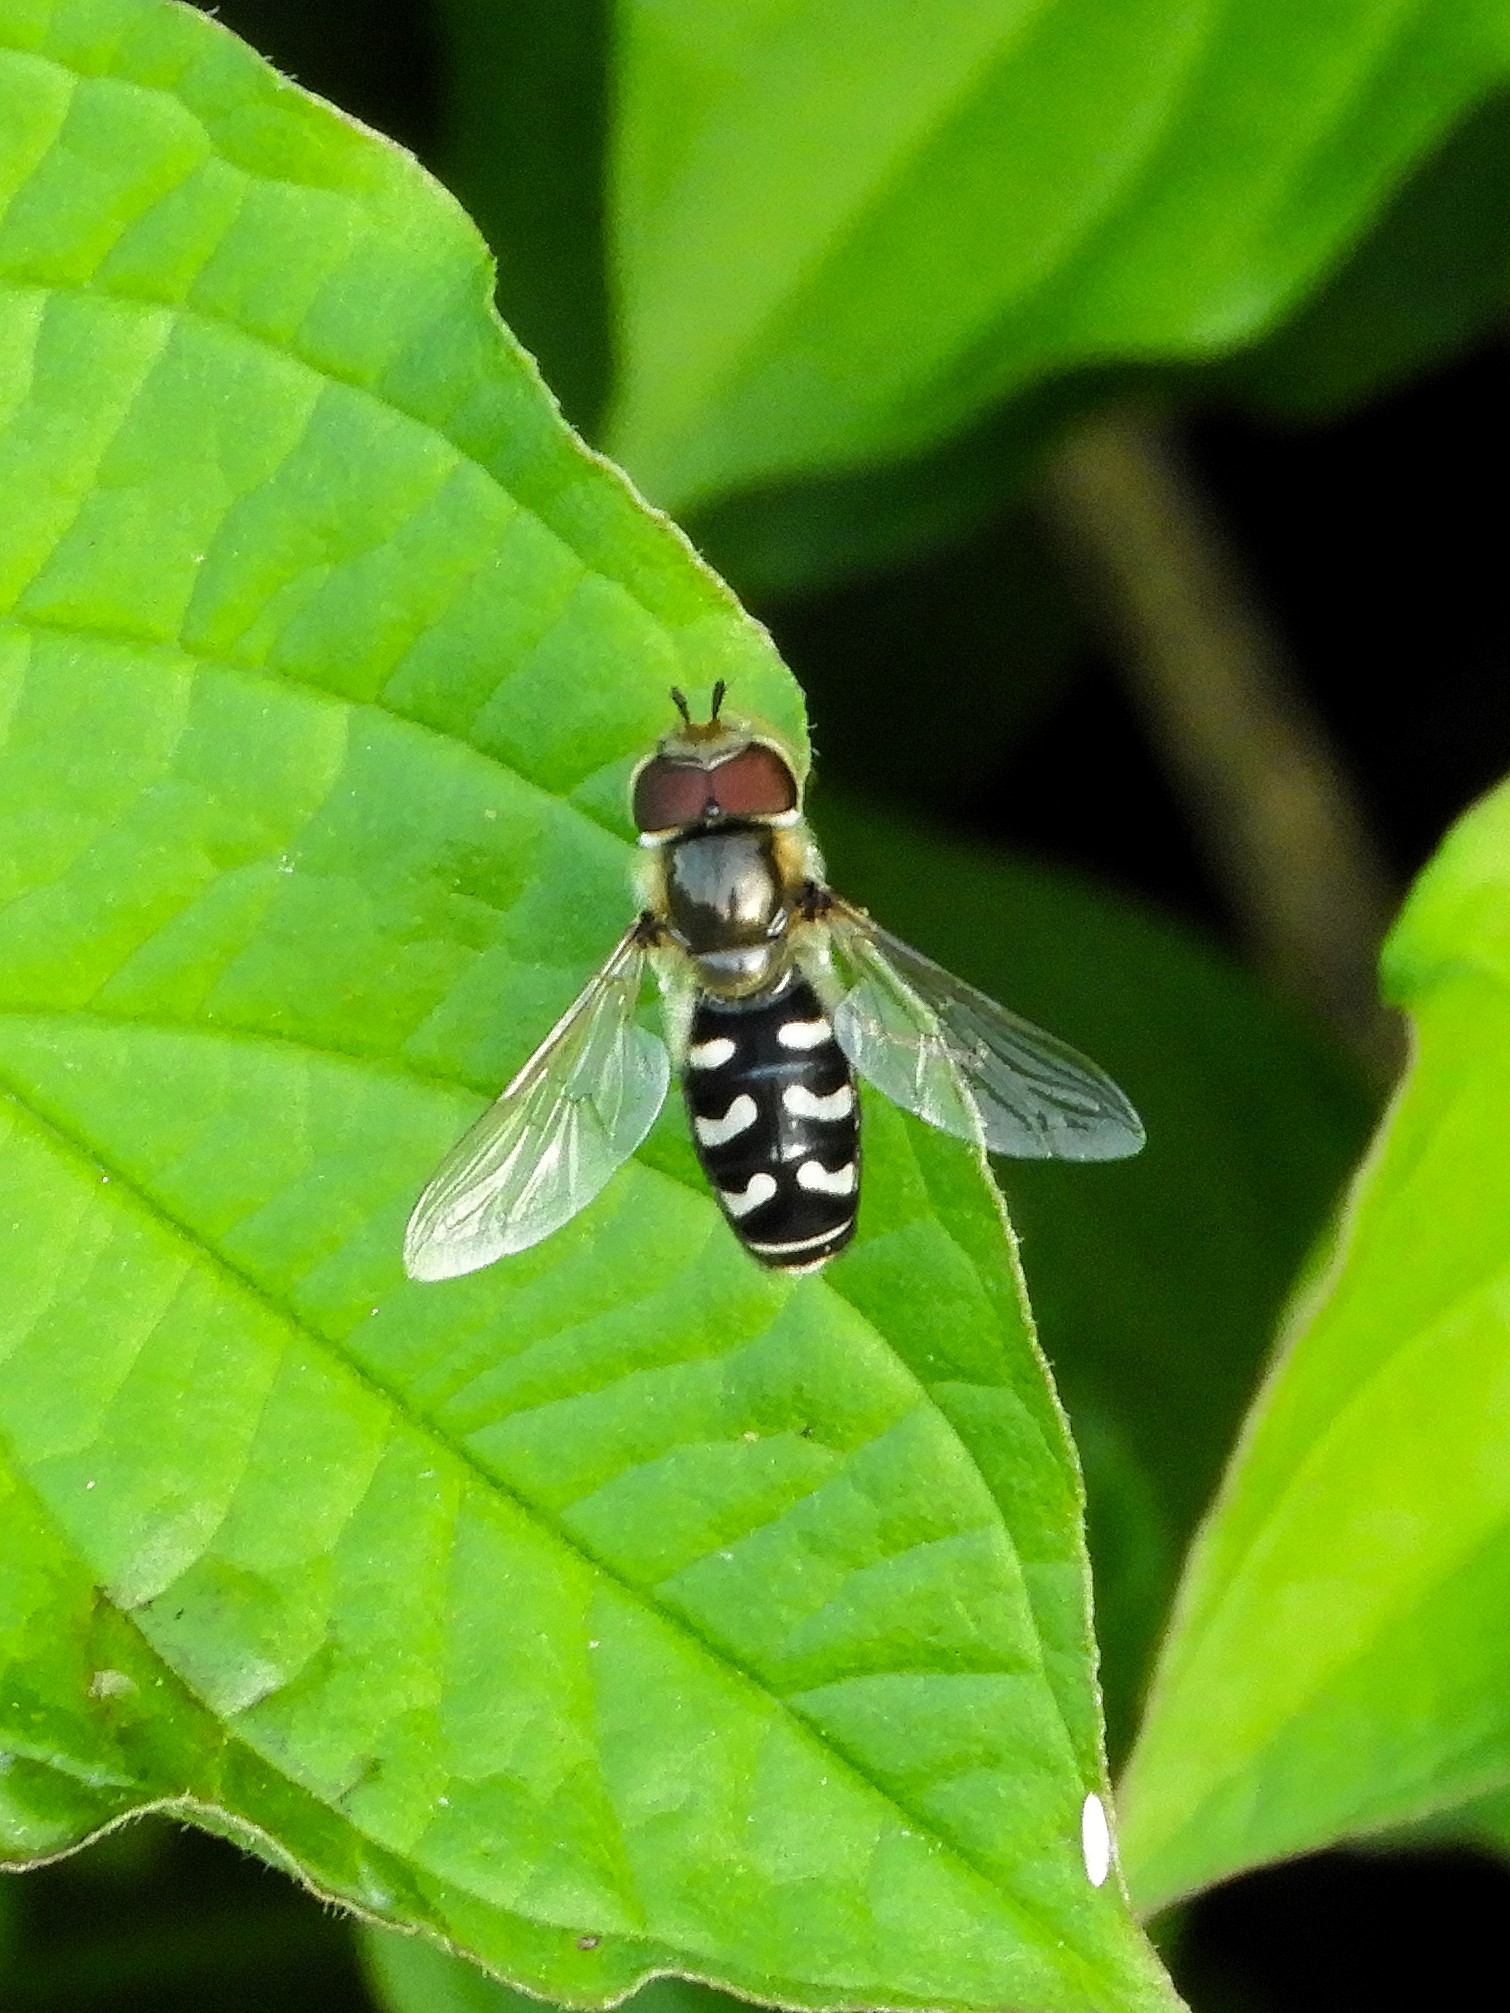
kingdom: Animalia
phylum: Arthropoda
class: Insecta
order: Diptera
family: Syrphidae
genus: Scaeva
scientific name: Scaeva pyrastri
